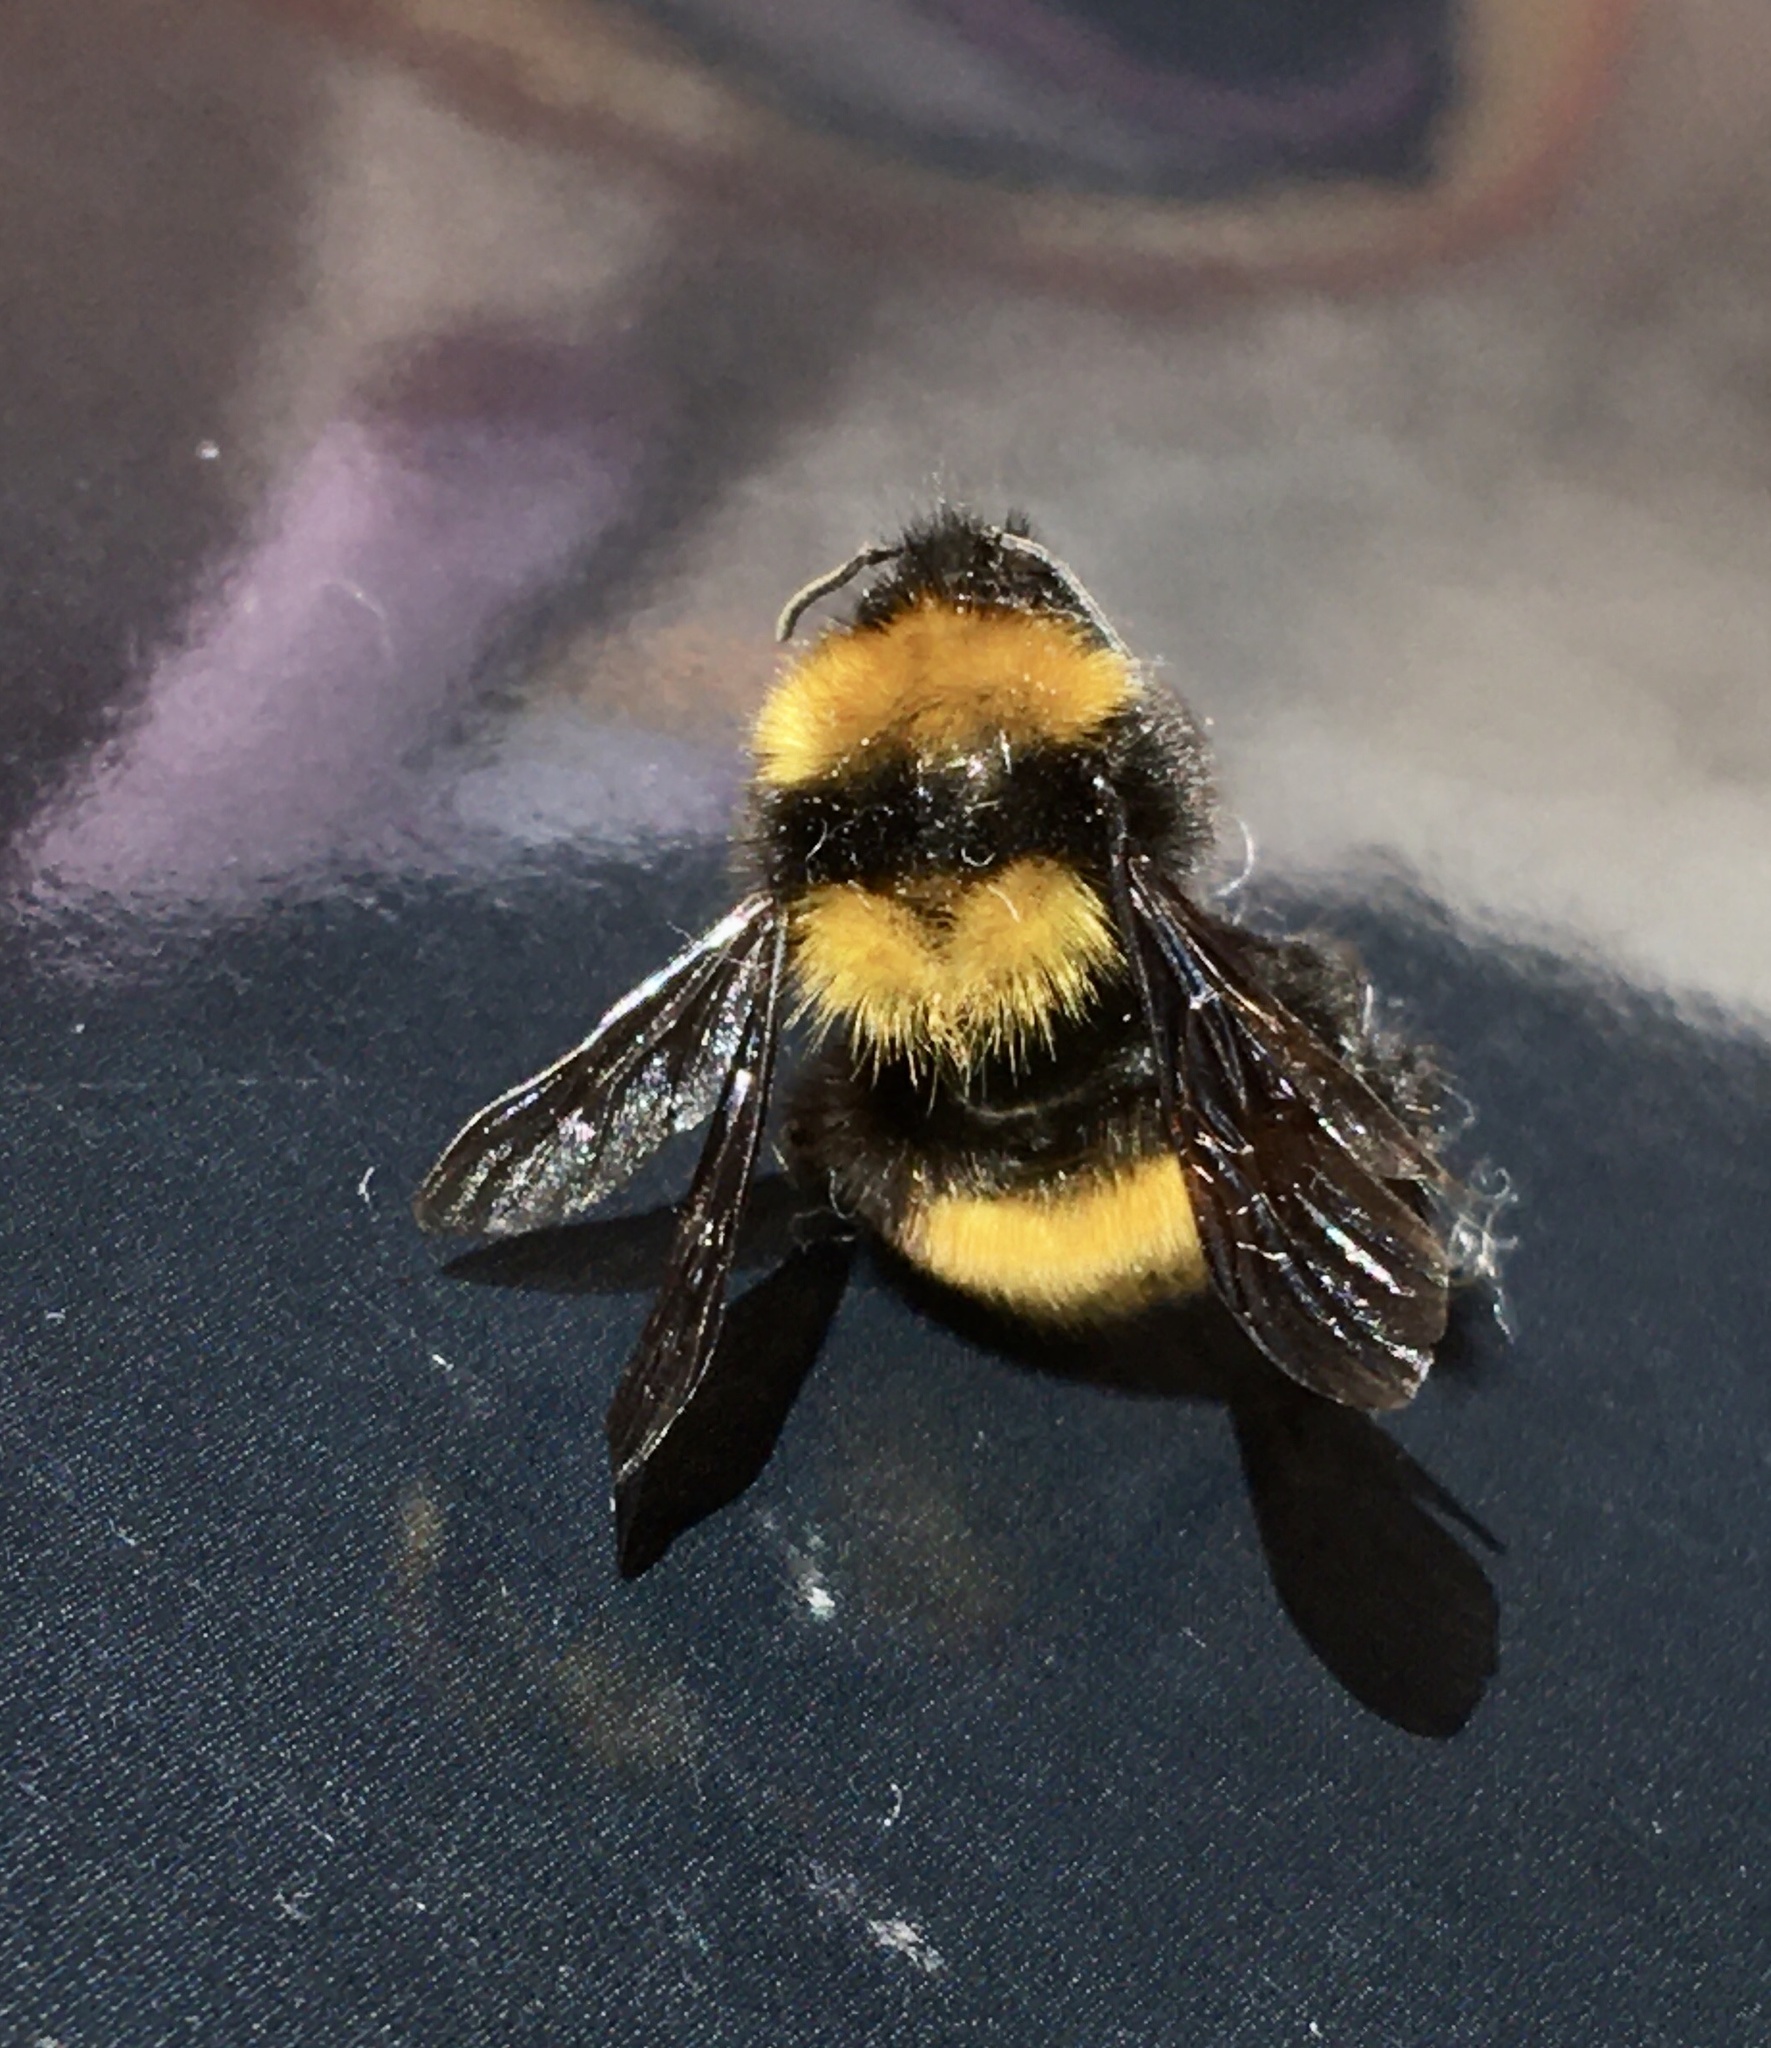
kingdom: Animalia
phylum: Arthropoda
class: Insecta
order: Hymenoptera
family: Apidae
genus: Bombus
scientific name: Bombus hortulanus
